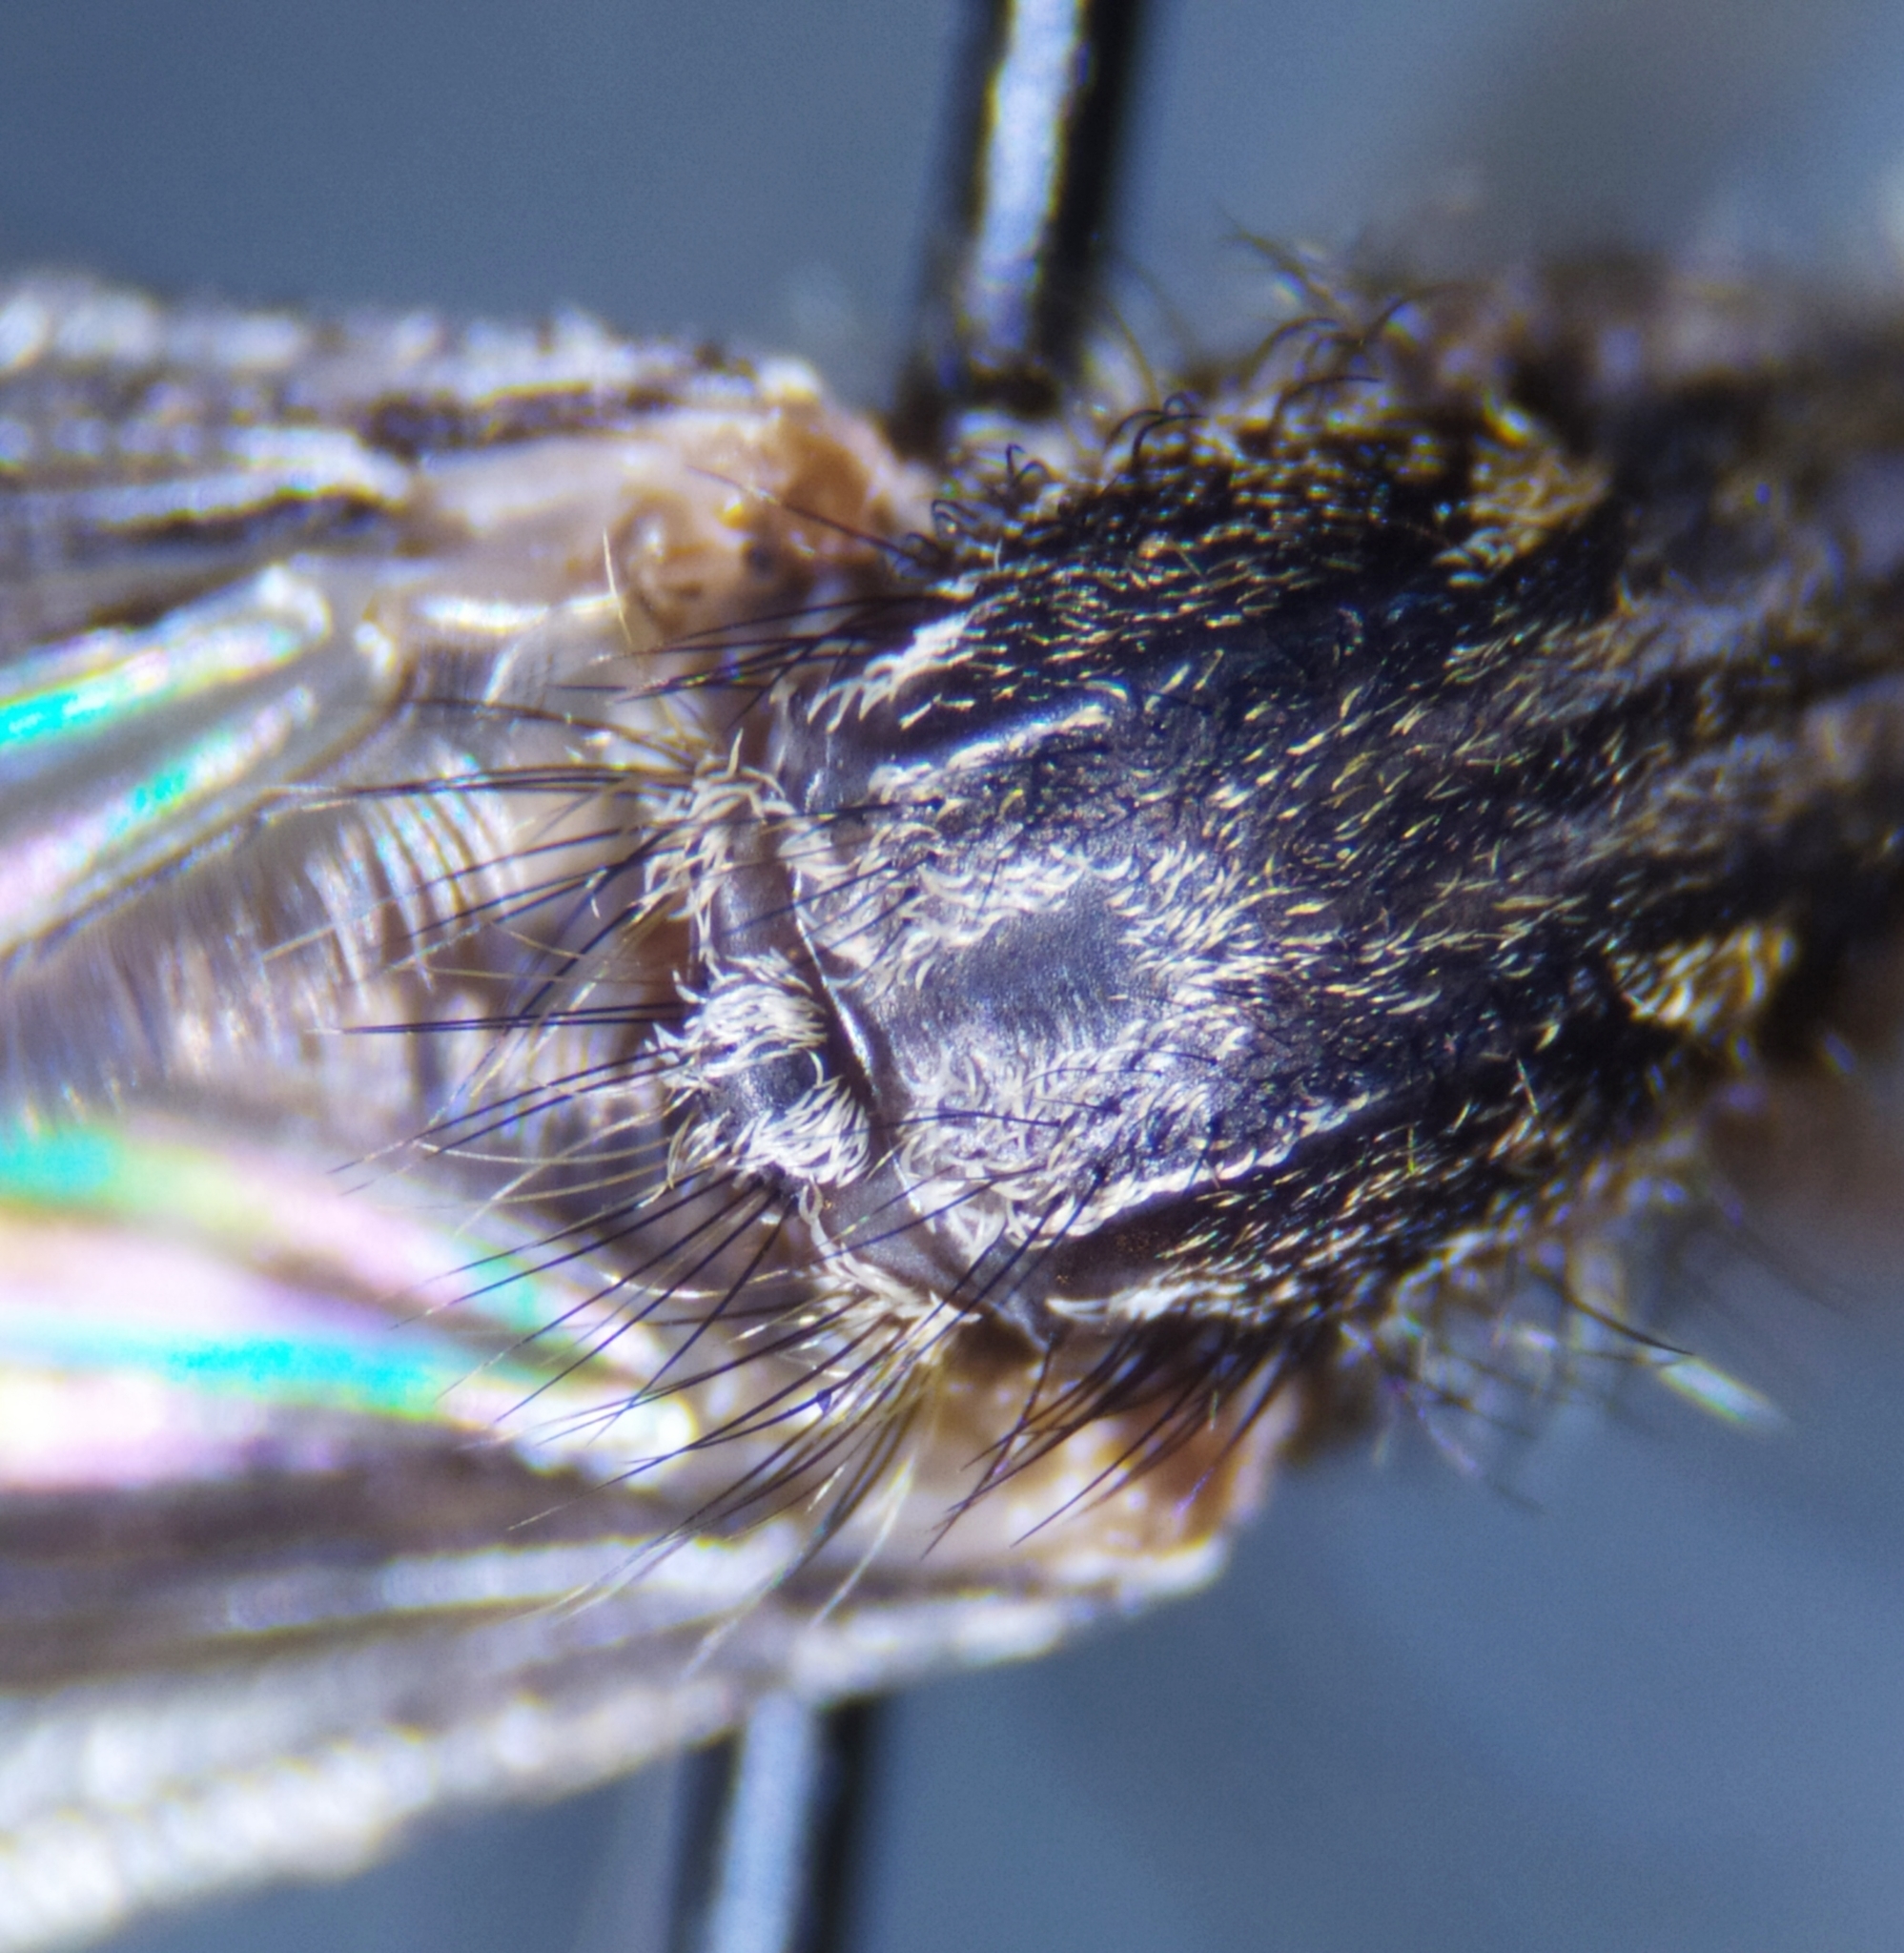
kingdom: Animalia
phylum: Arthropoda
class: Insecta
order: Diptera
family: Culicidae
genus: Culiseta
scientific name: Culiseta annulata
